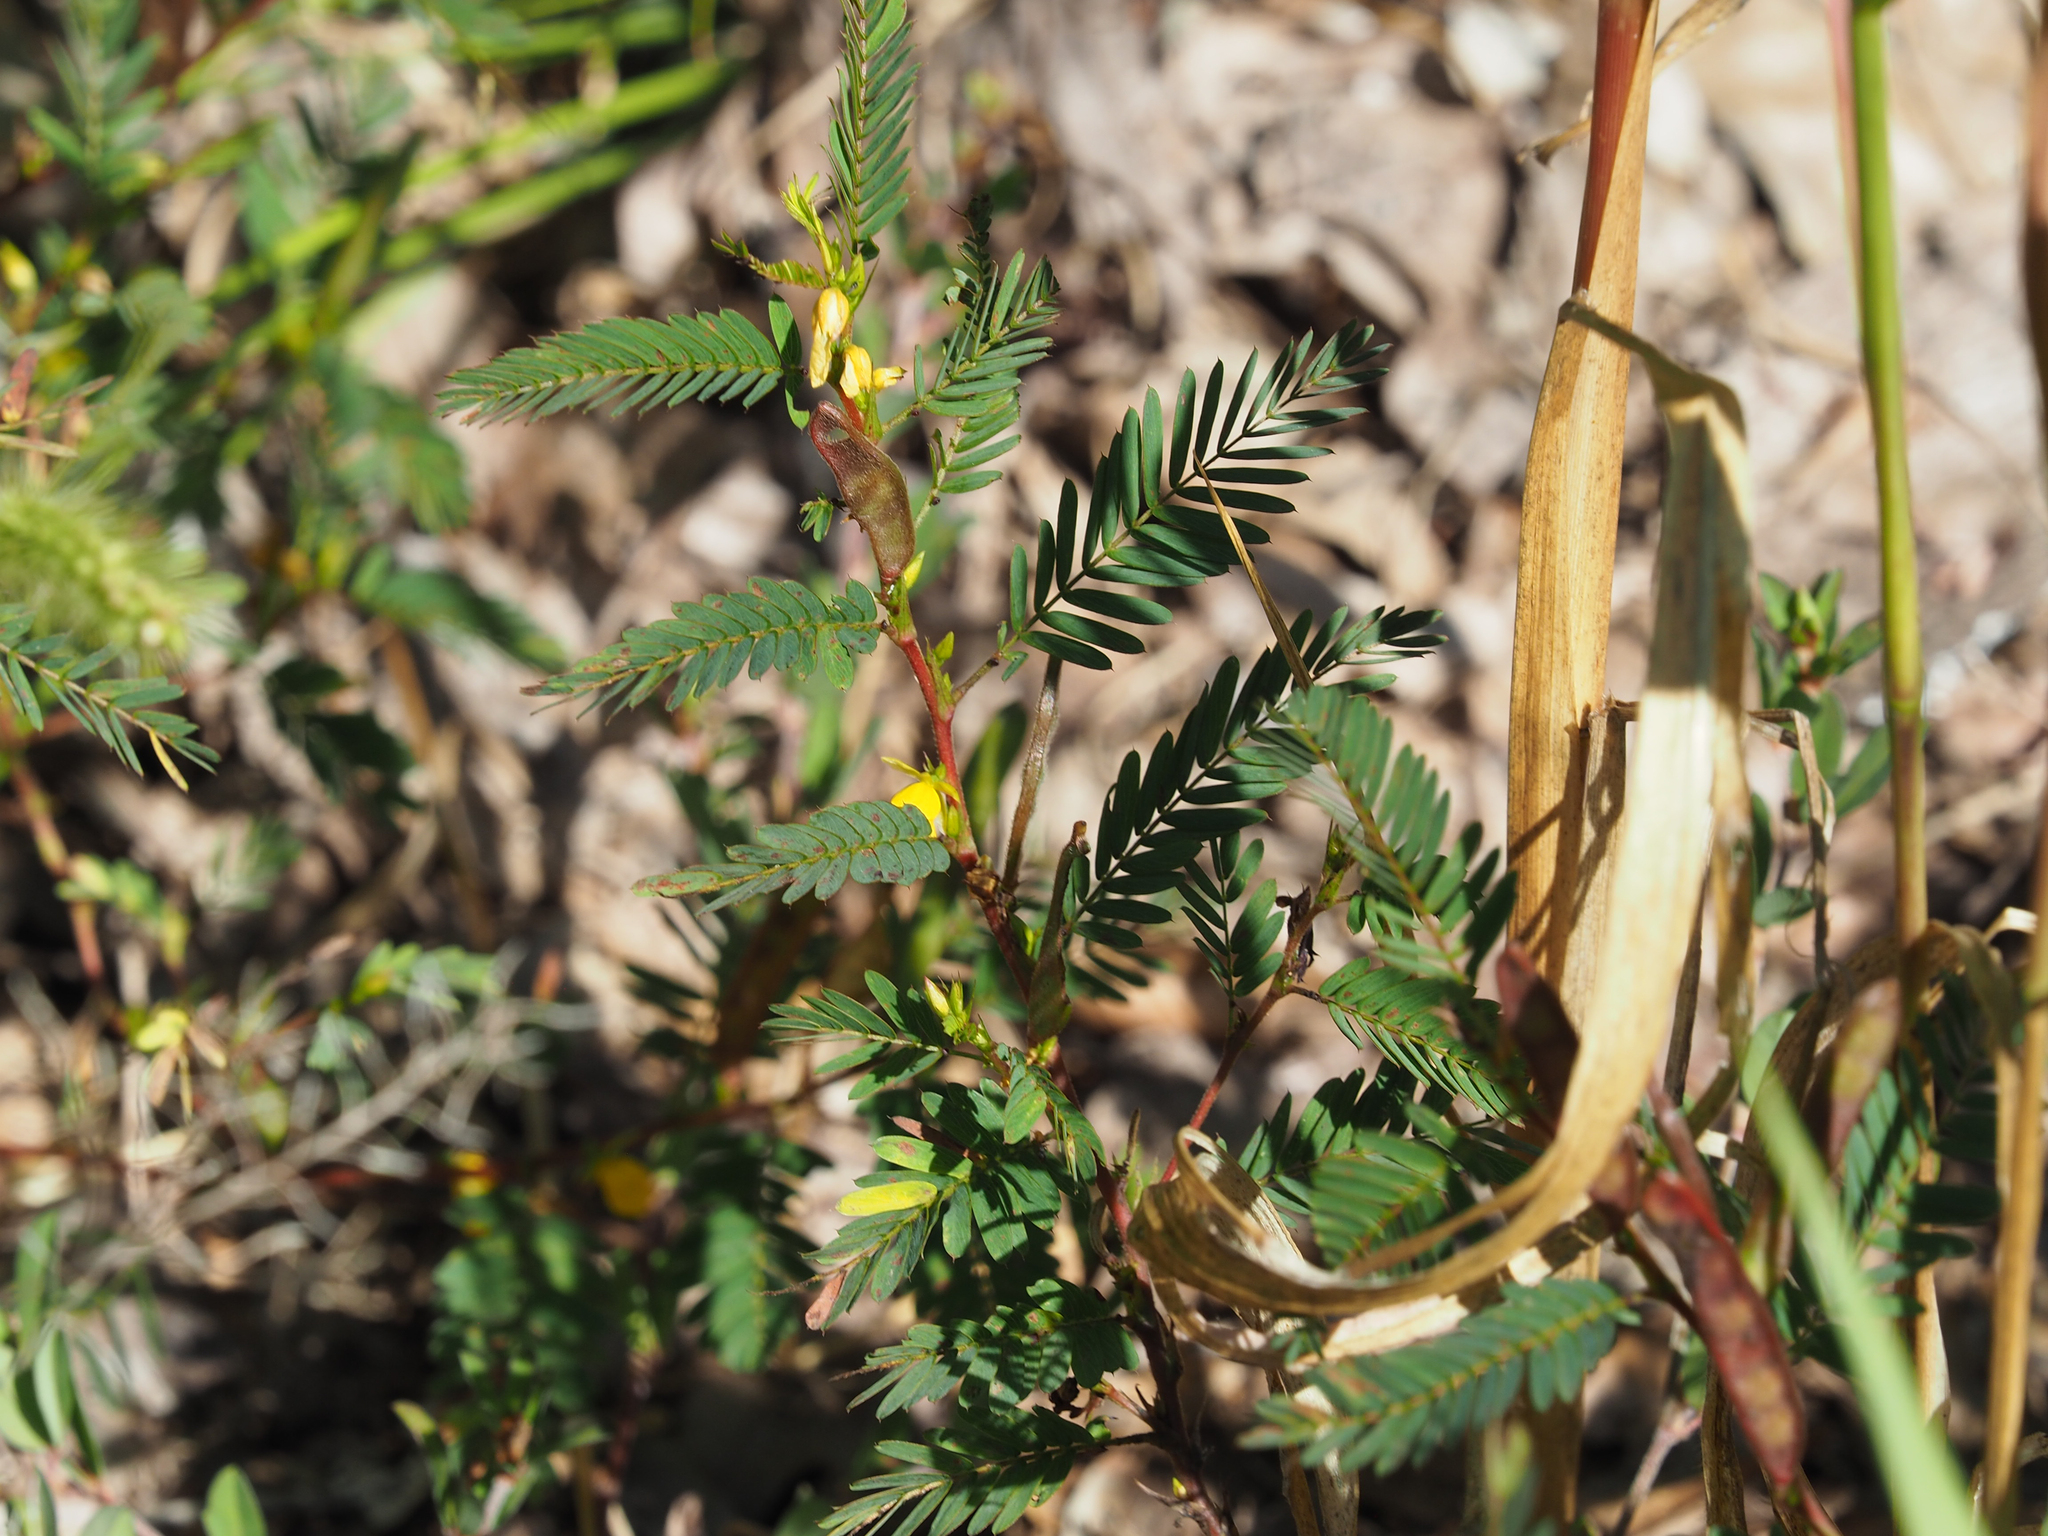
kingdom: Plantae
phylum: Tracheophyta
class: Magnoliopsida
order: Fabales
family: Fabaceae
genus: Chamaecrista
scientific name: Chamaecrista nictitans
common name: Sensitive cassia
